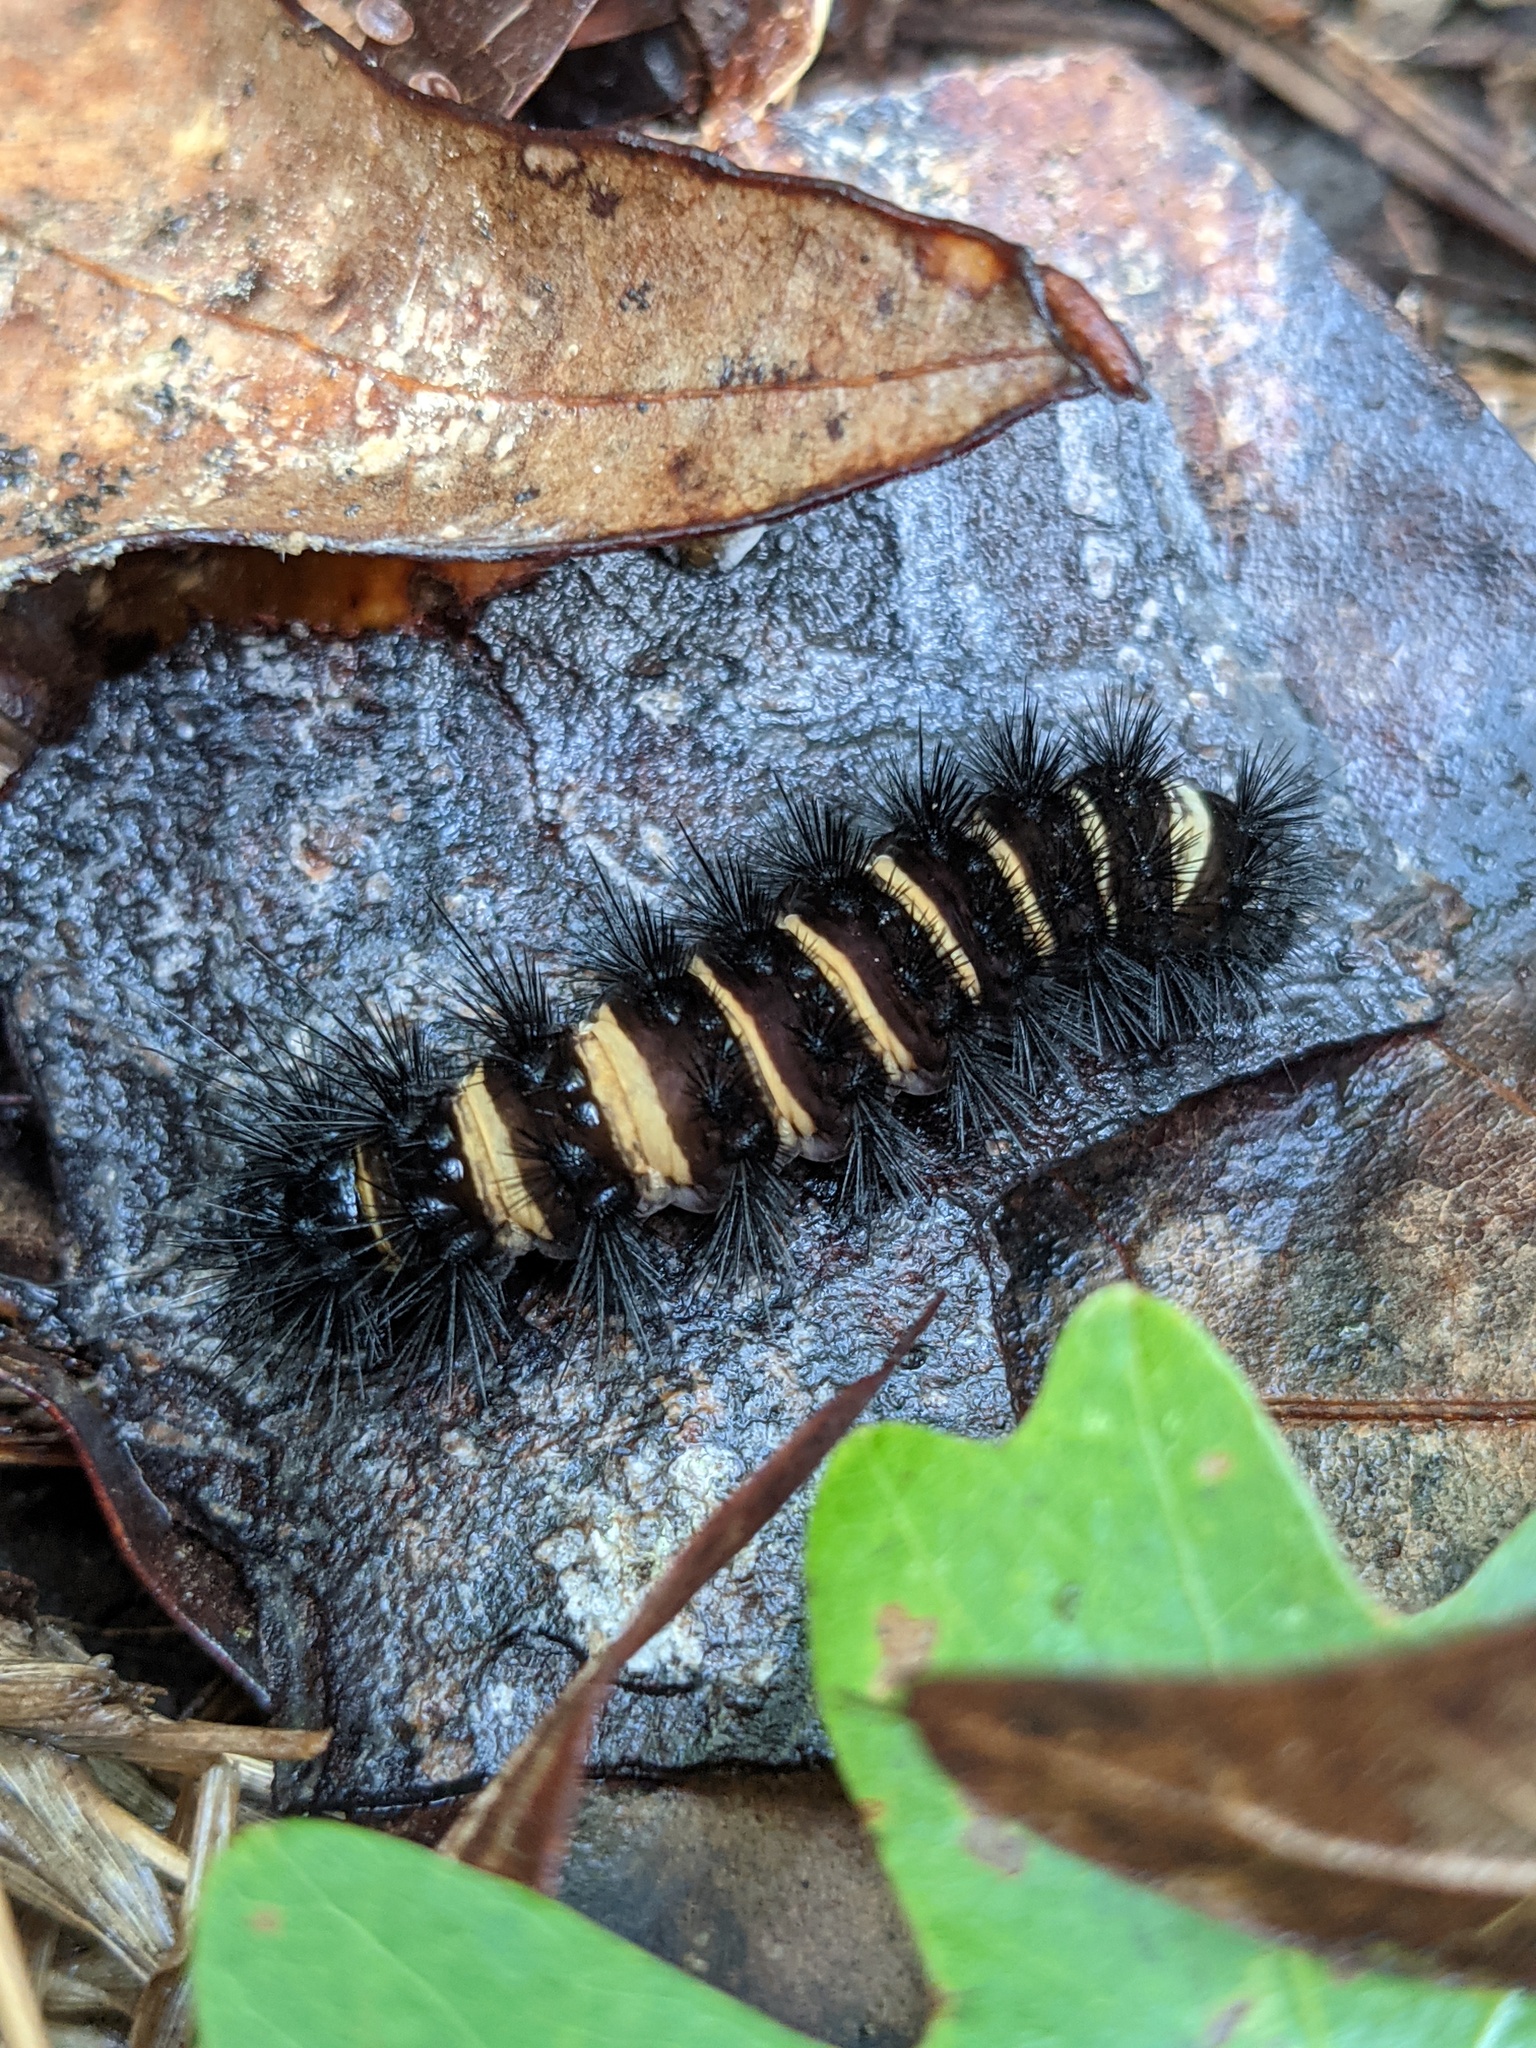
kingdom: Animalia
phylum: Arthropoda
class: Insecta
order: Lepidoptera
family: Erebidae
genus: Spilosoma
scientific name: Spilosoma congrua
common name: Agreeable tiger moth
